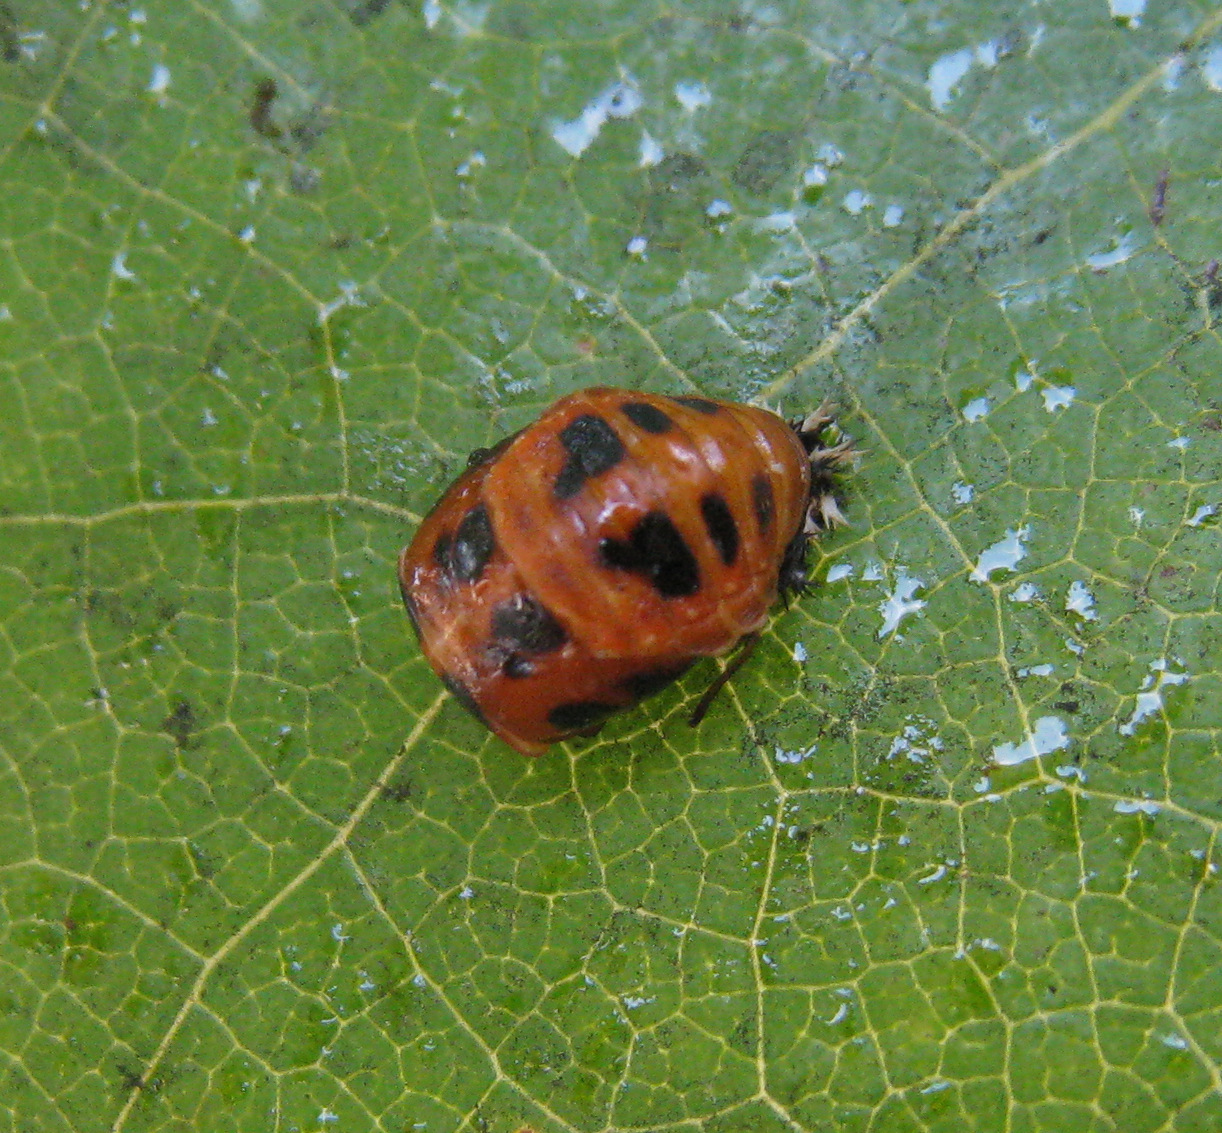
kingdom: Animalia
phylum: Arthropoda
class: Insecta
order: Coleoptera
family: Coccinellidae
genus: Harmonia
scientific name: Harmonia axyridis
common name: Harlequin ladybird
